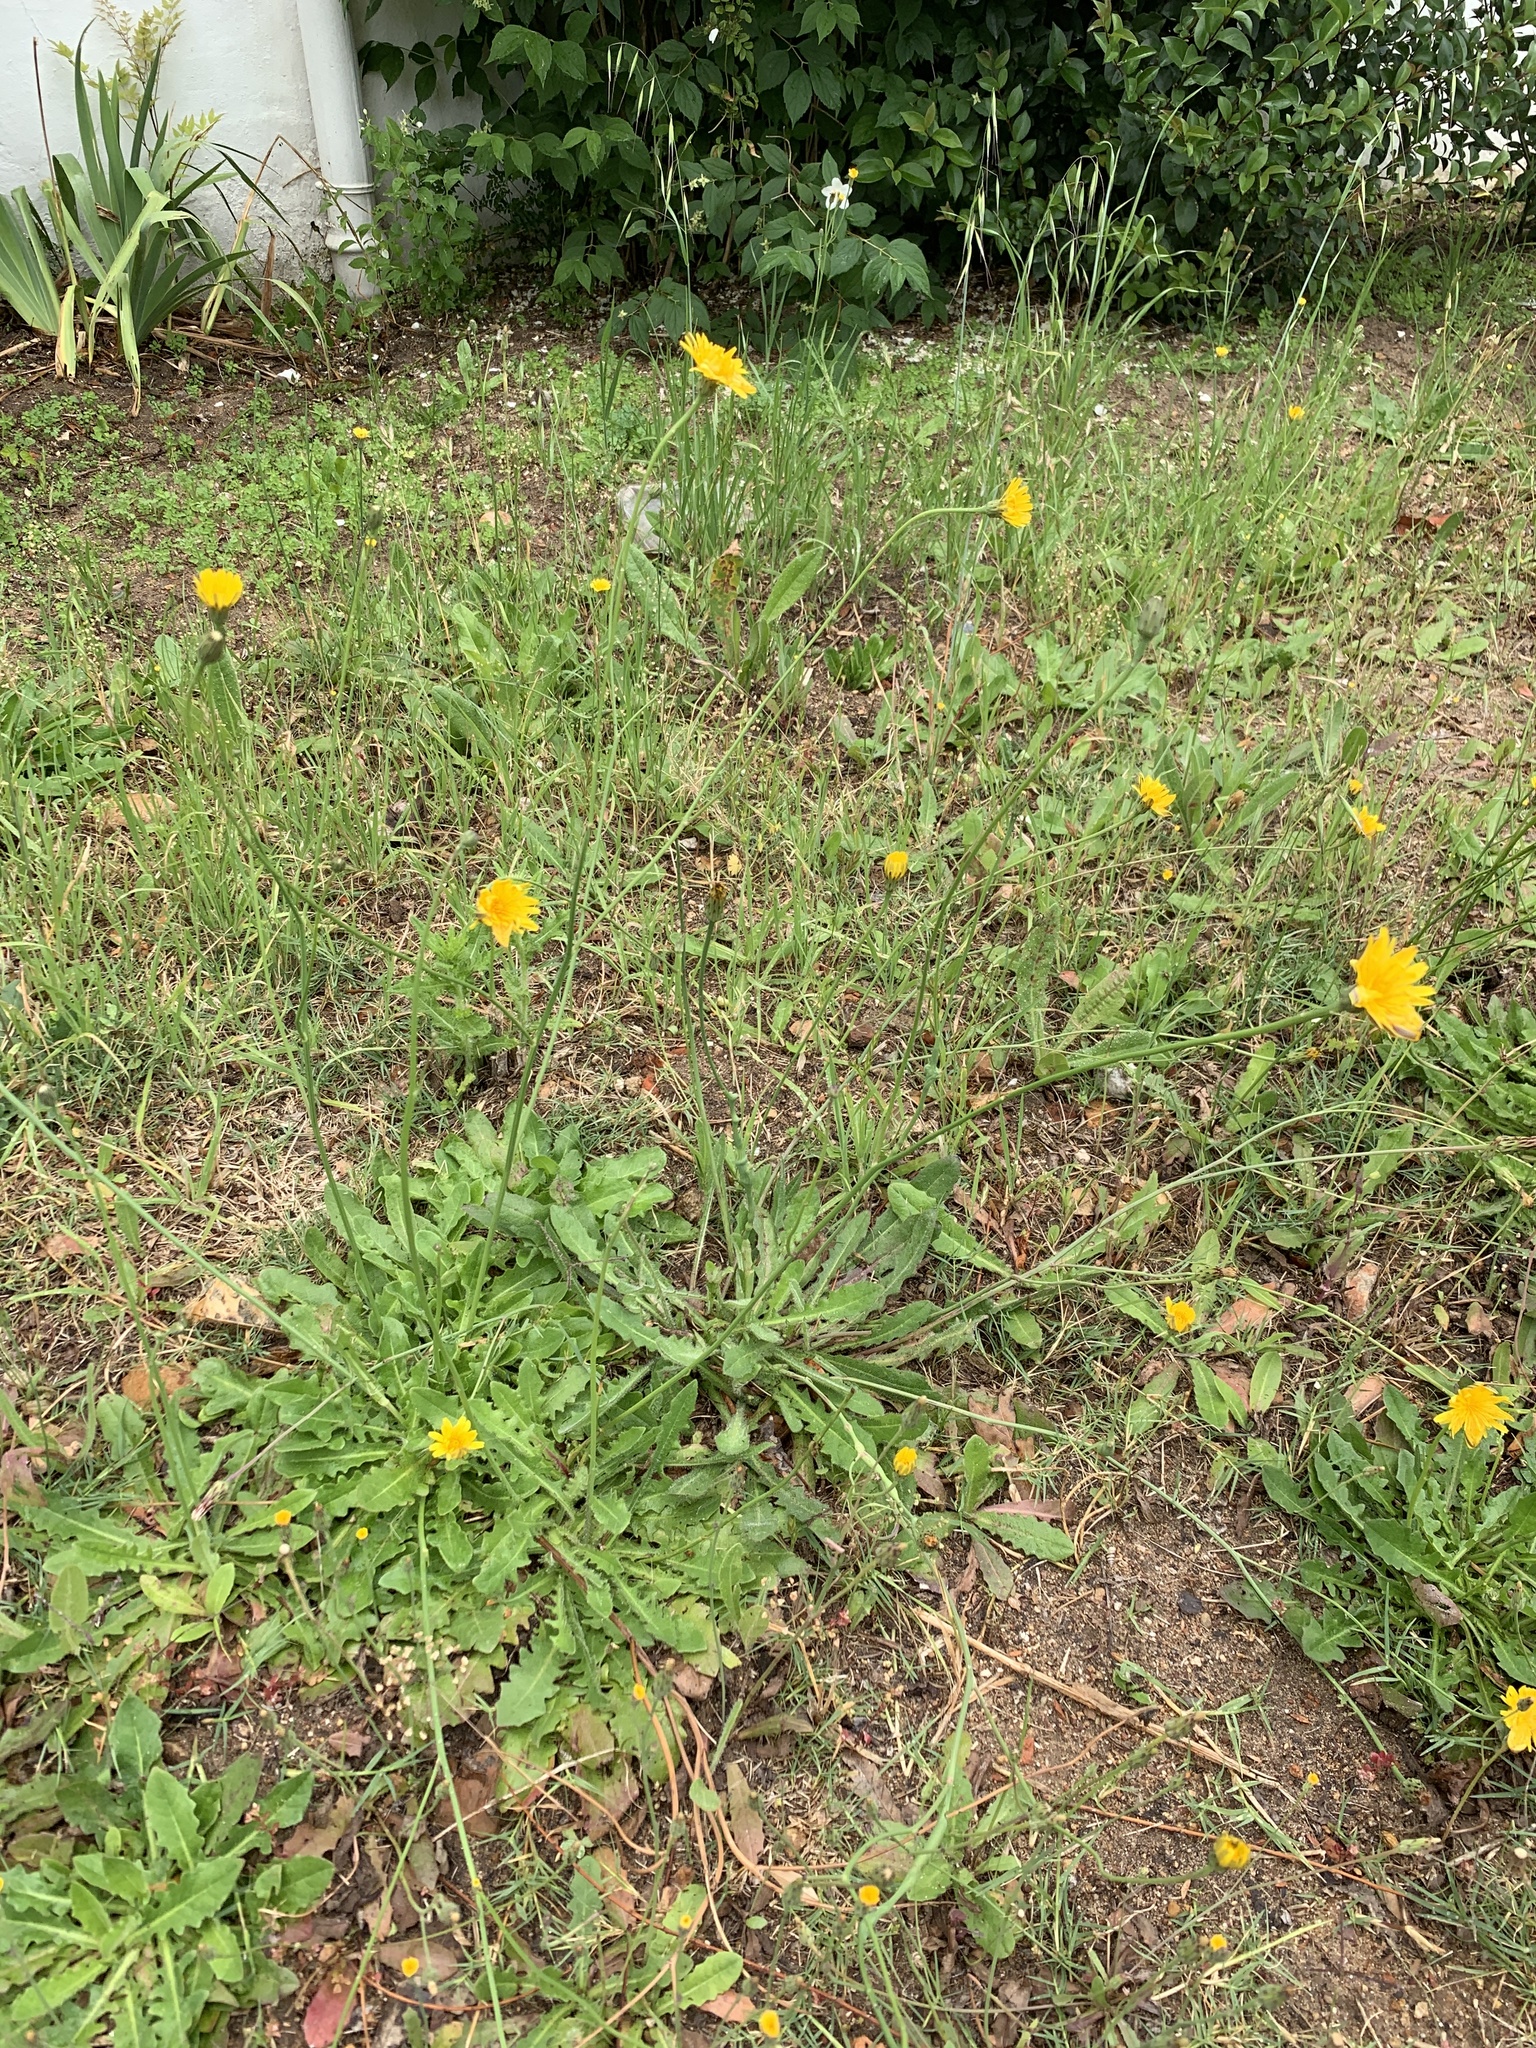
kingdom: Plantae
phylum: Tracheophyta
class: Magnoliopsida
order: Asterales
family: Asteraceae
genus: Hypochaeris
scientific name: Hypochaeris radicata
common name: Flatweed
